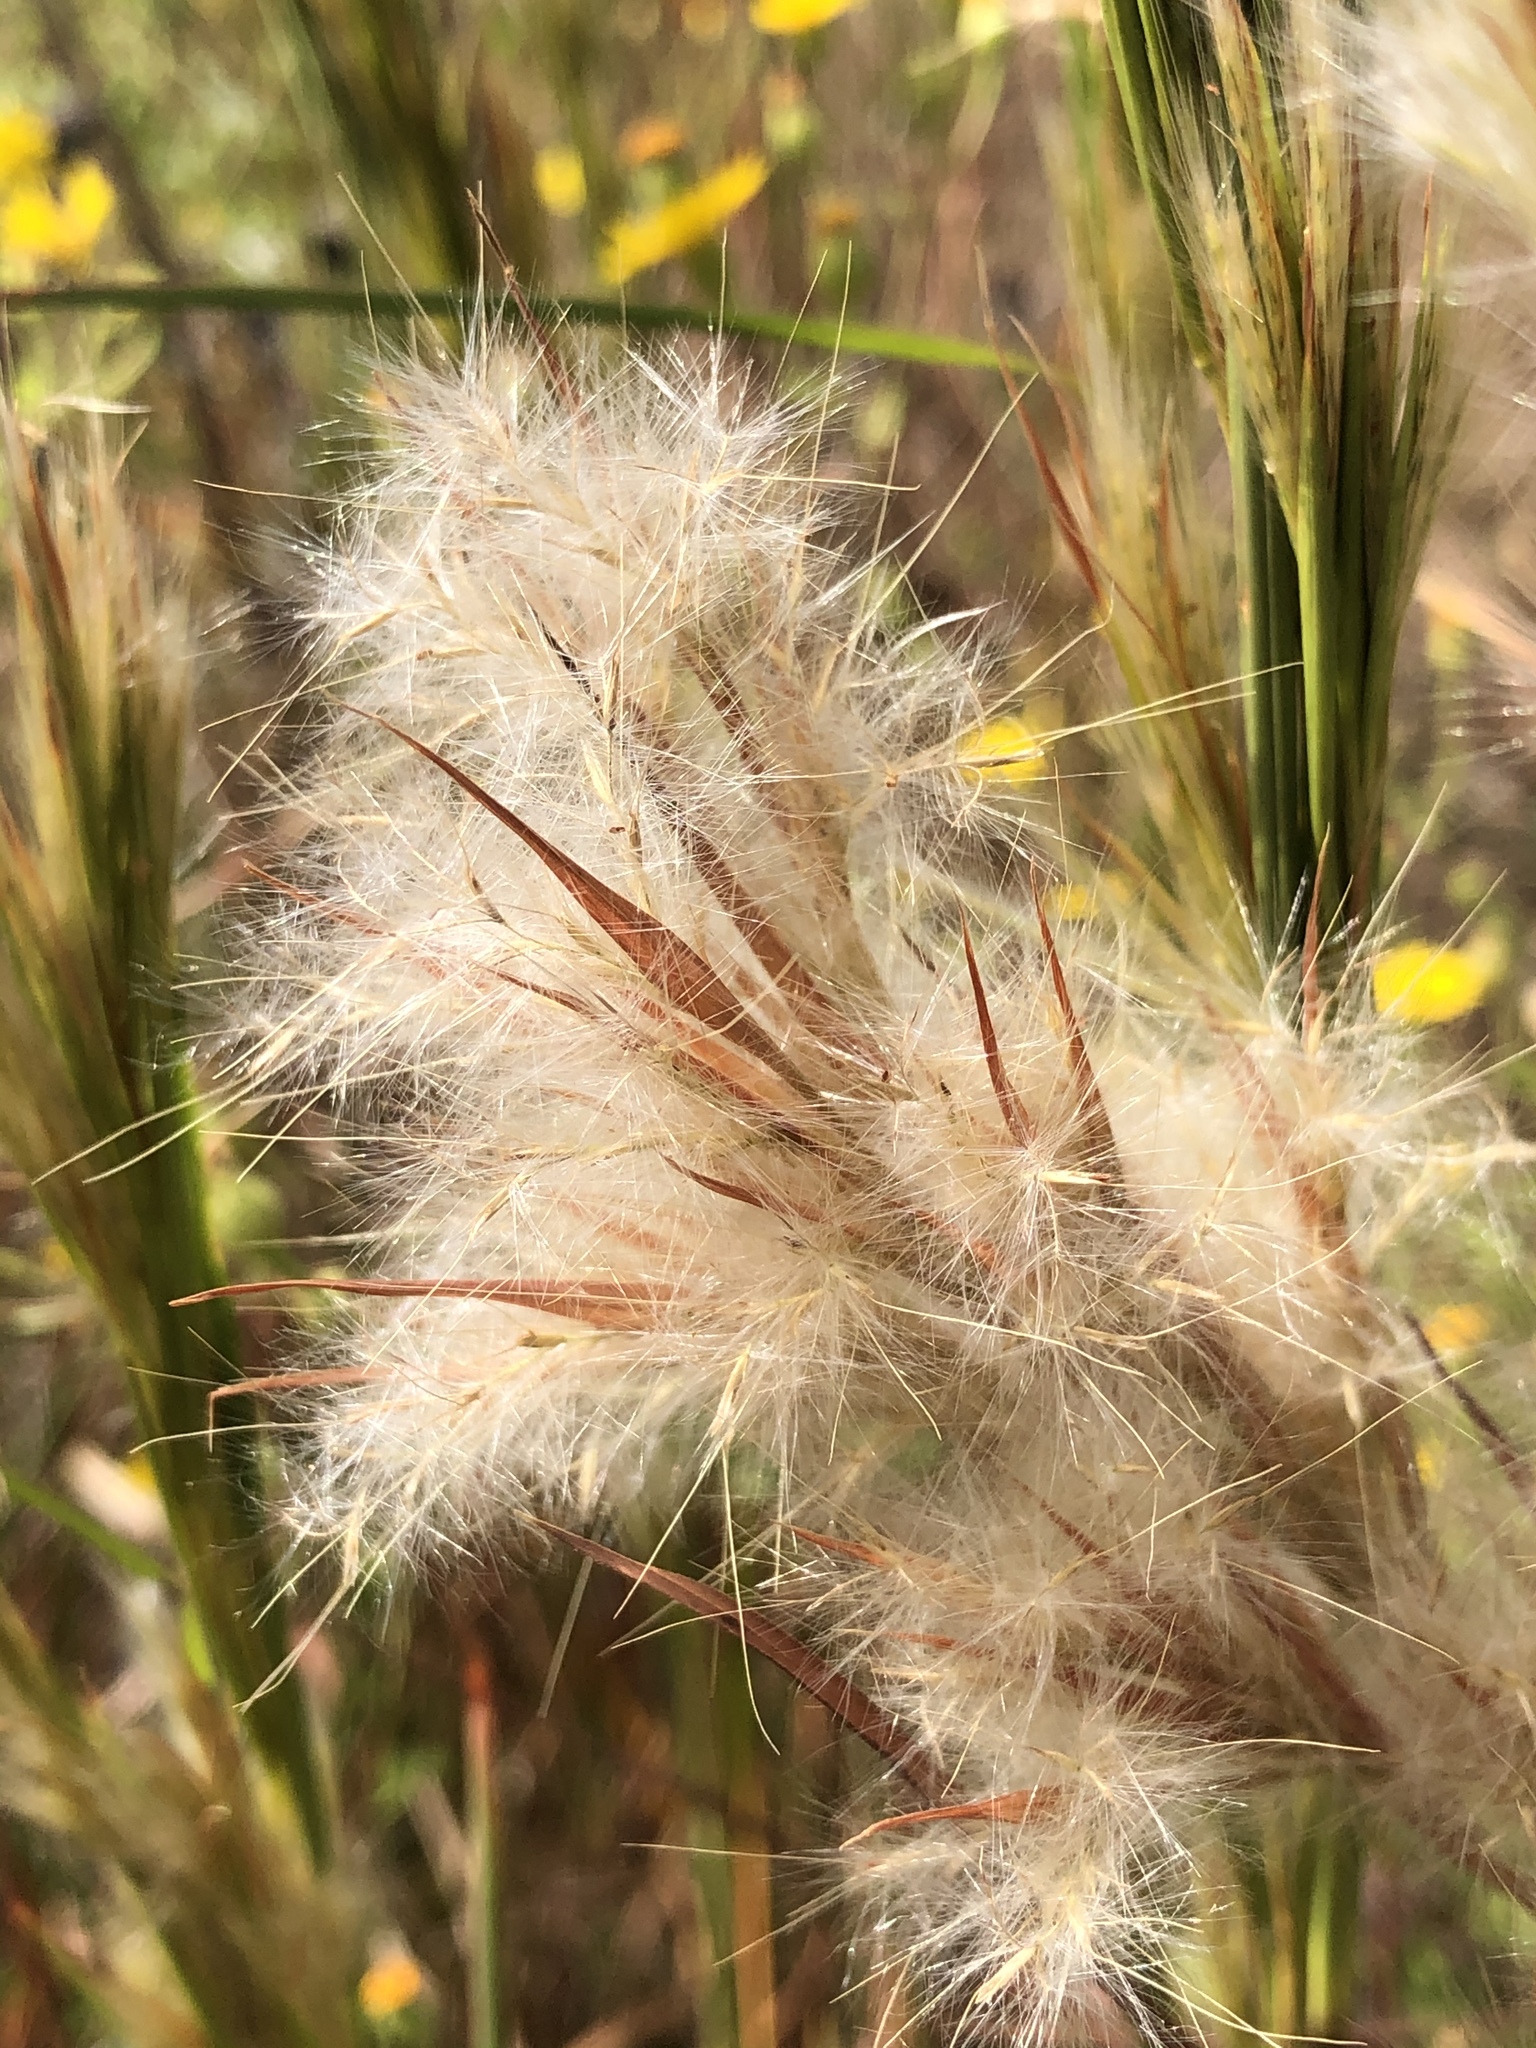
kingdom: Plantae
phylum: Tracheophyta
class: Liliopsida
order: Poales
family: Poaceae
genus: Andropogon
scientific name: Andropogon tenuispatheus
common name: Bushy bluestem
